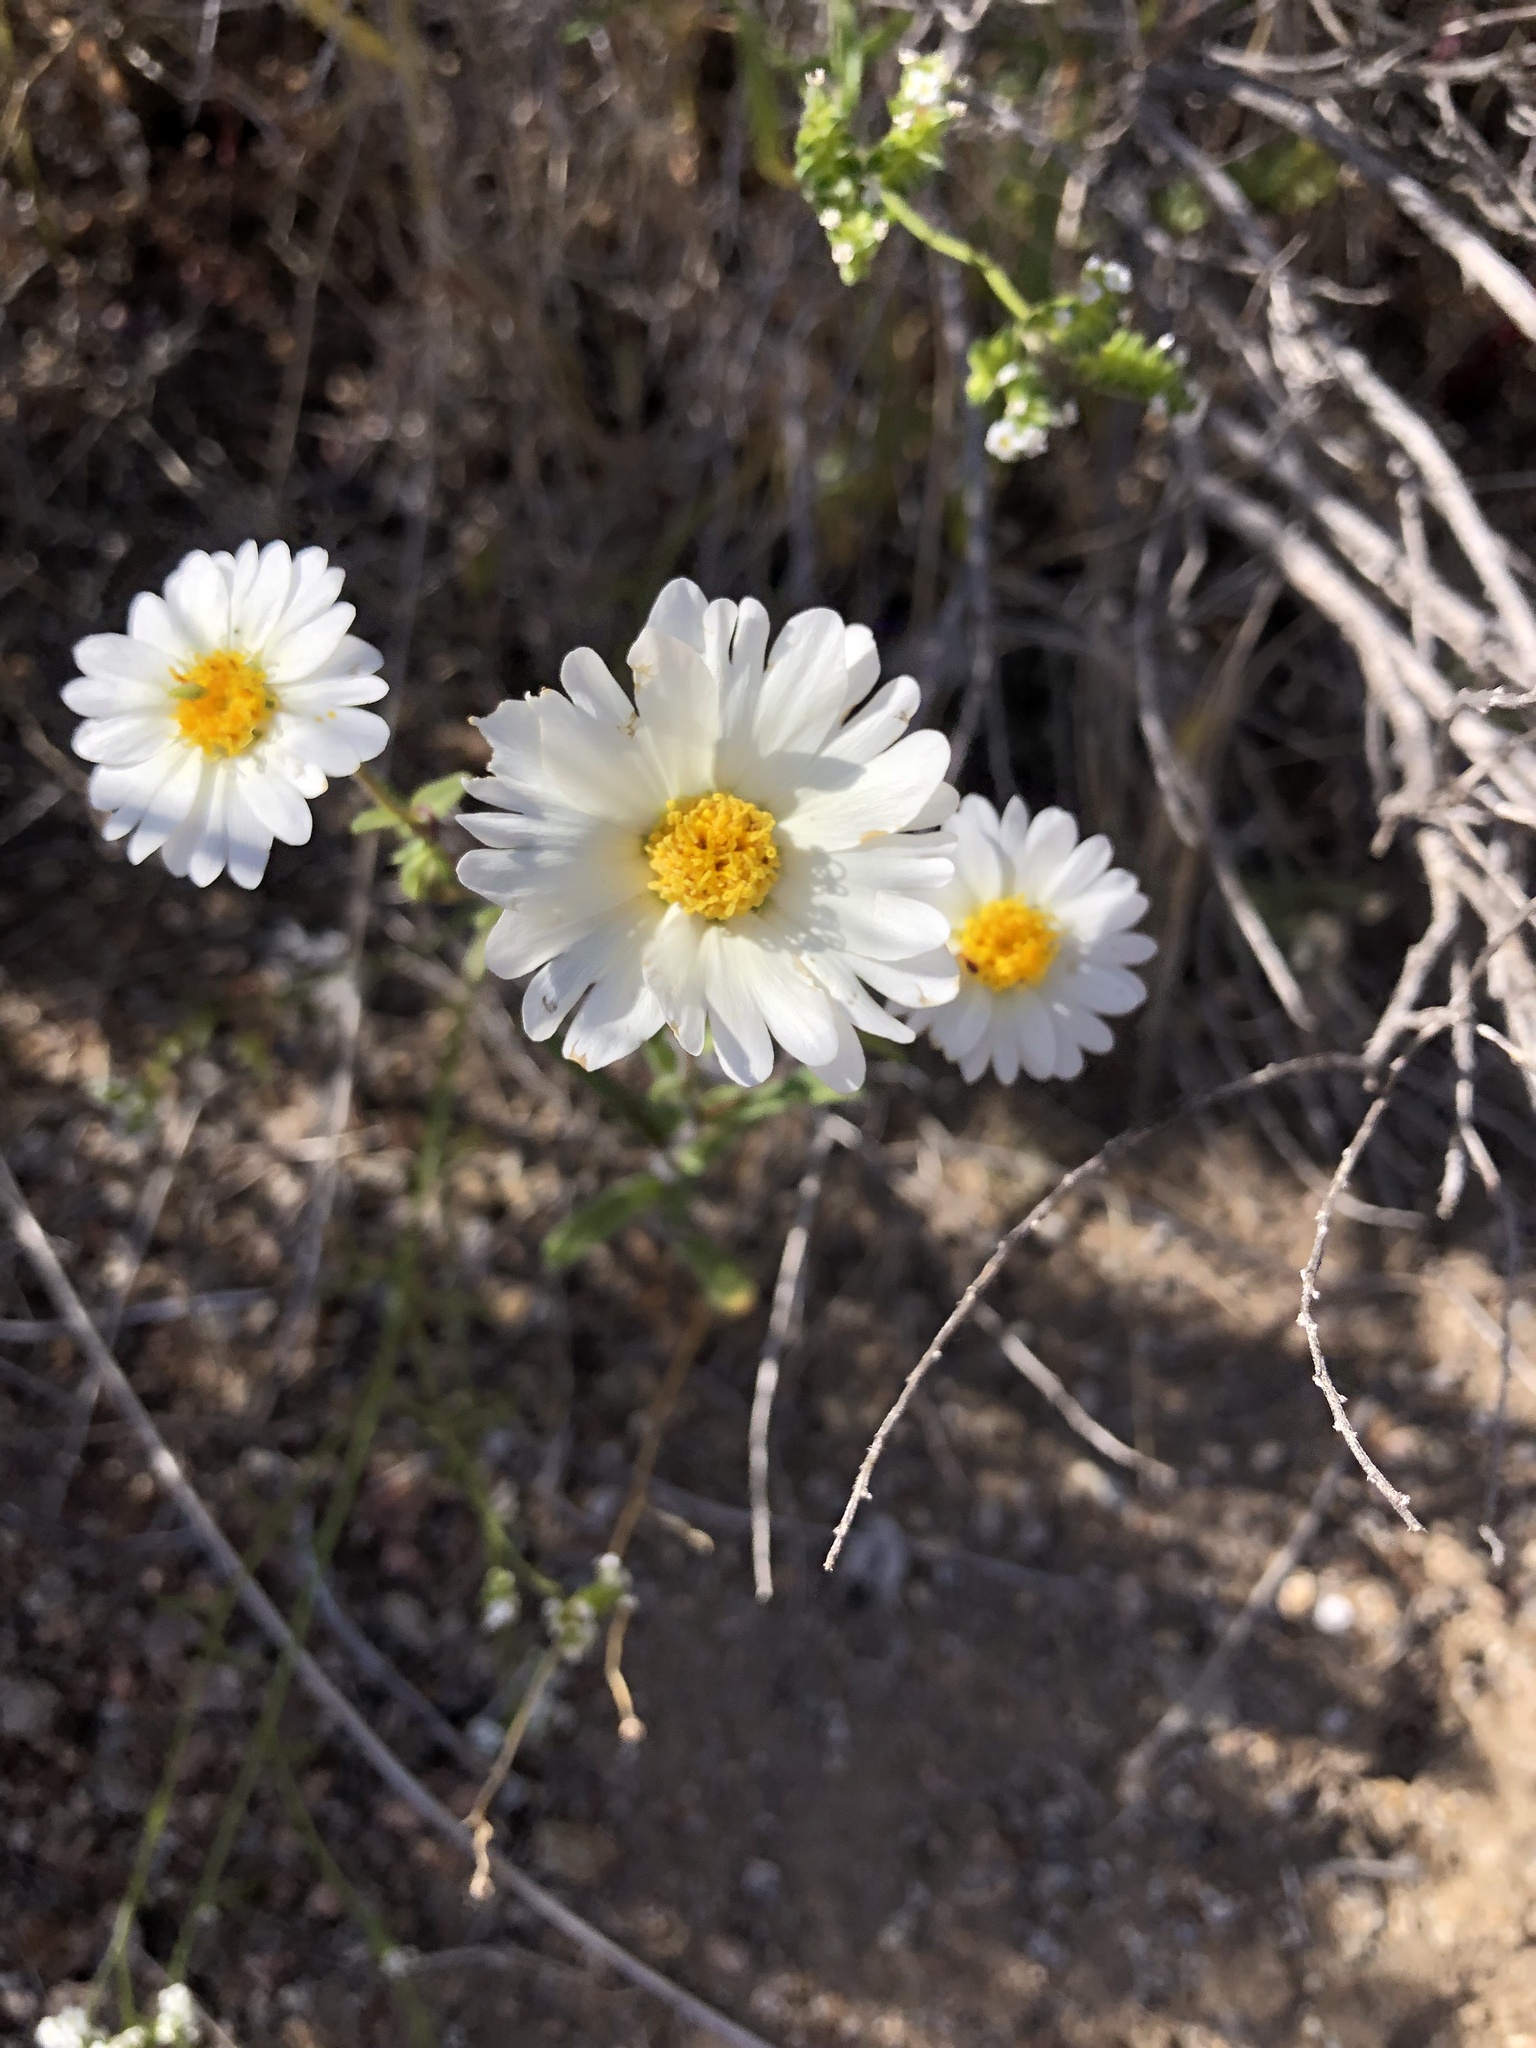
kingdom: Plantae
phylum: Tracheophyta
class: Magnoliopsida
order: Asterales
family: Asteraceae
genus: Layia
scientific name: Layia glandulosa
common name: White layia
